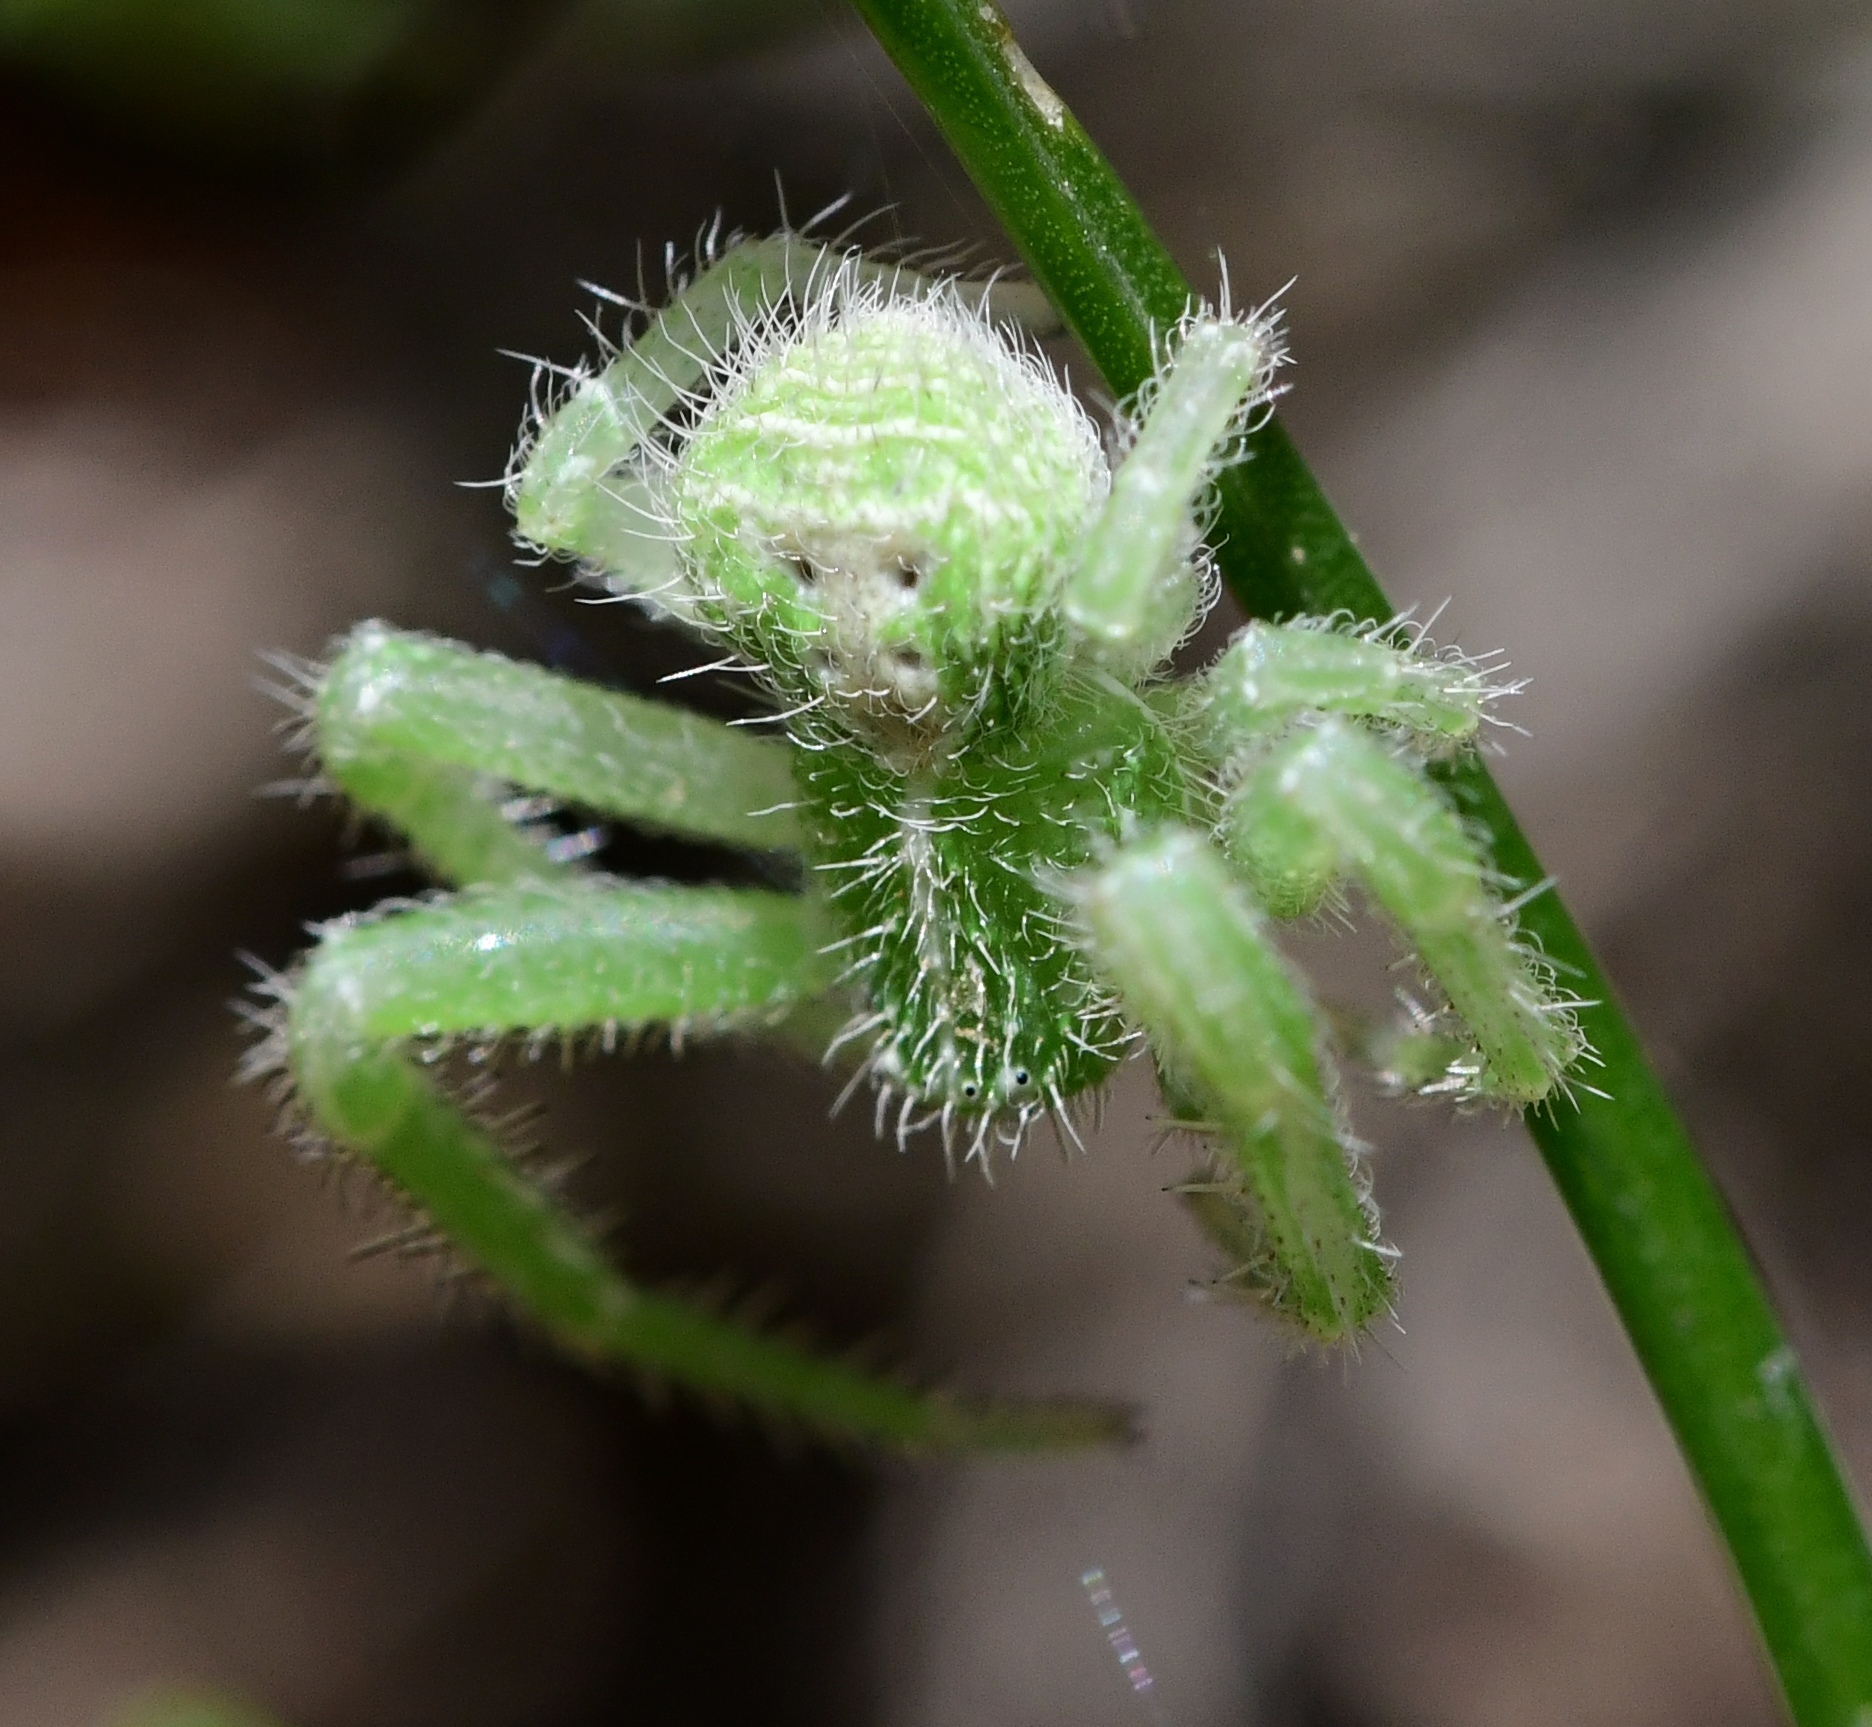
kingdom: Animalia
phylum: Arthropoda
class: Arachnida
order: Araneae
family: Thomisidae
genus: Heriaeus
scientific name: Heriaeus hirtus
